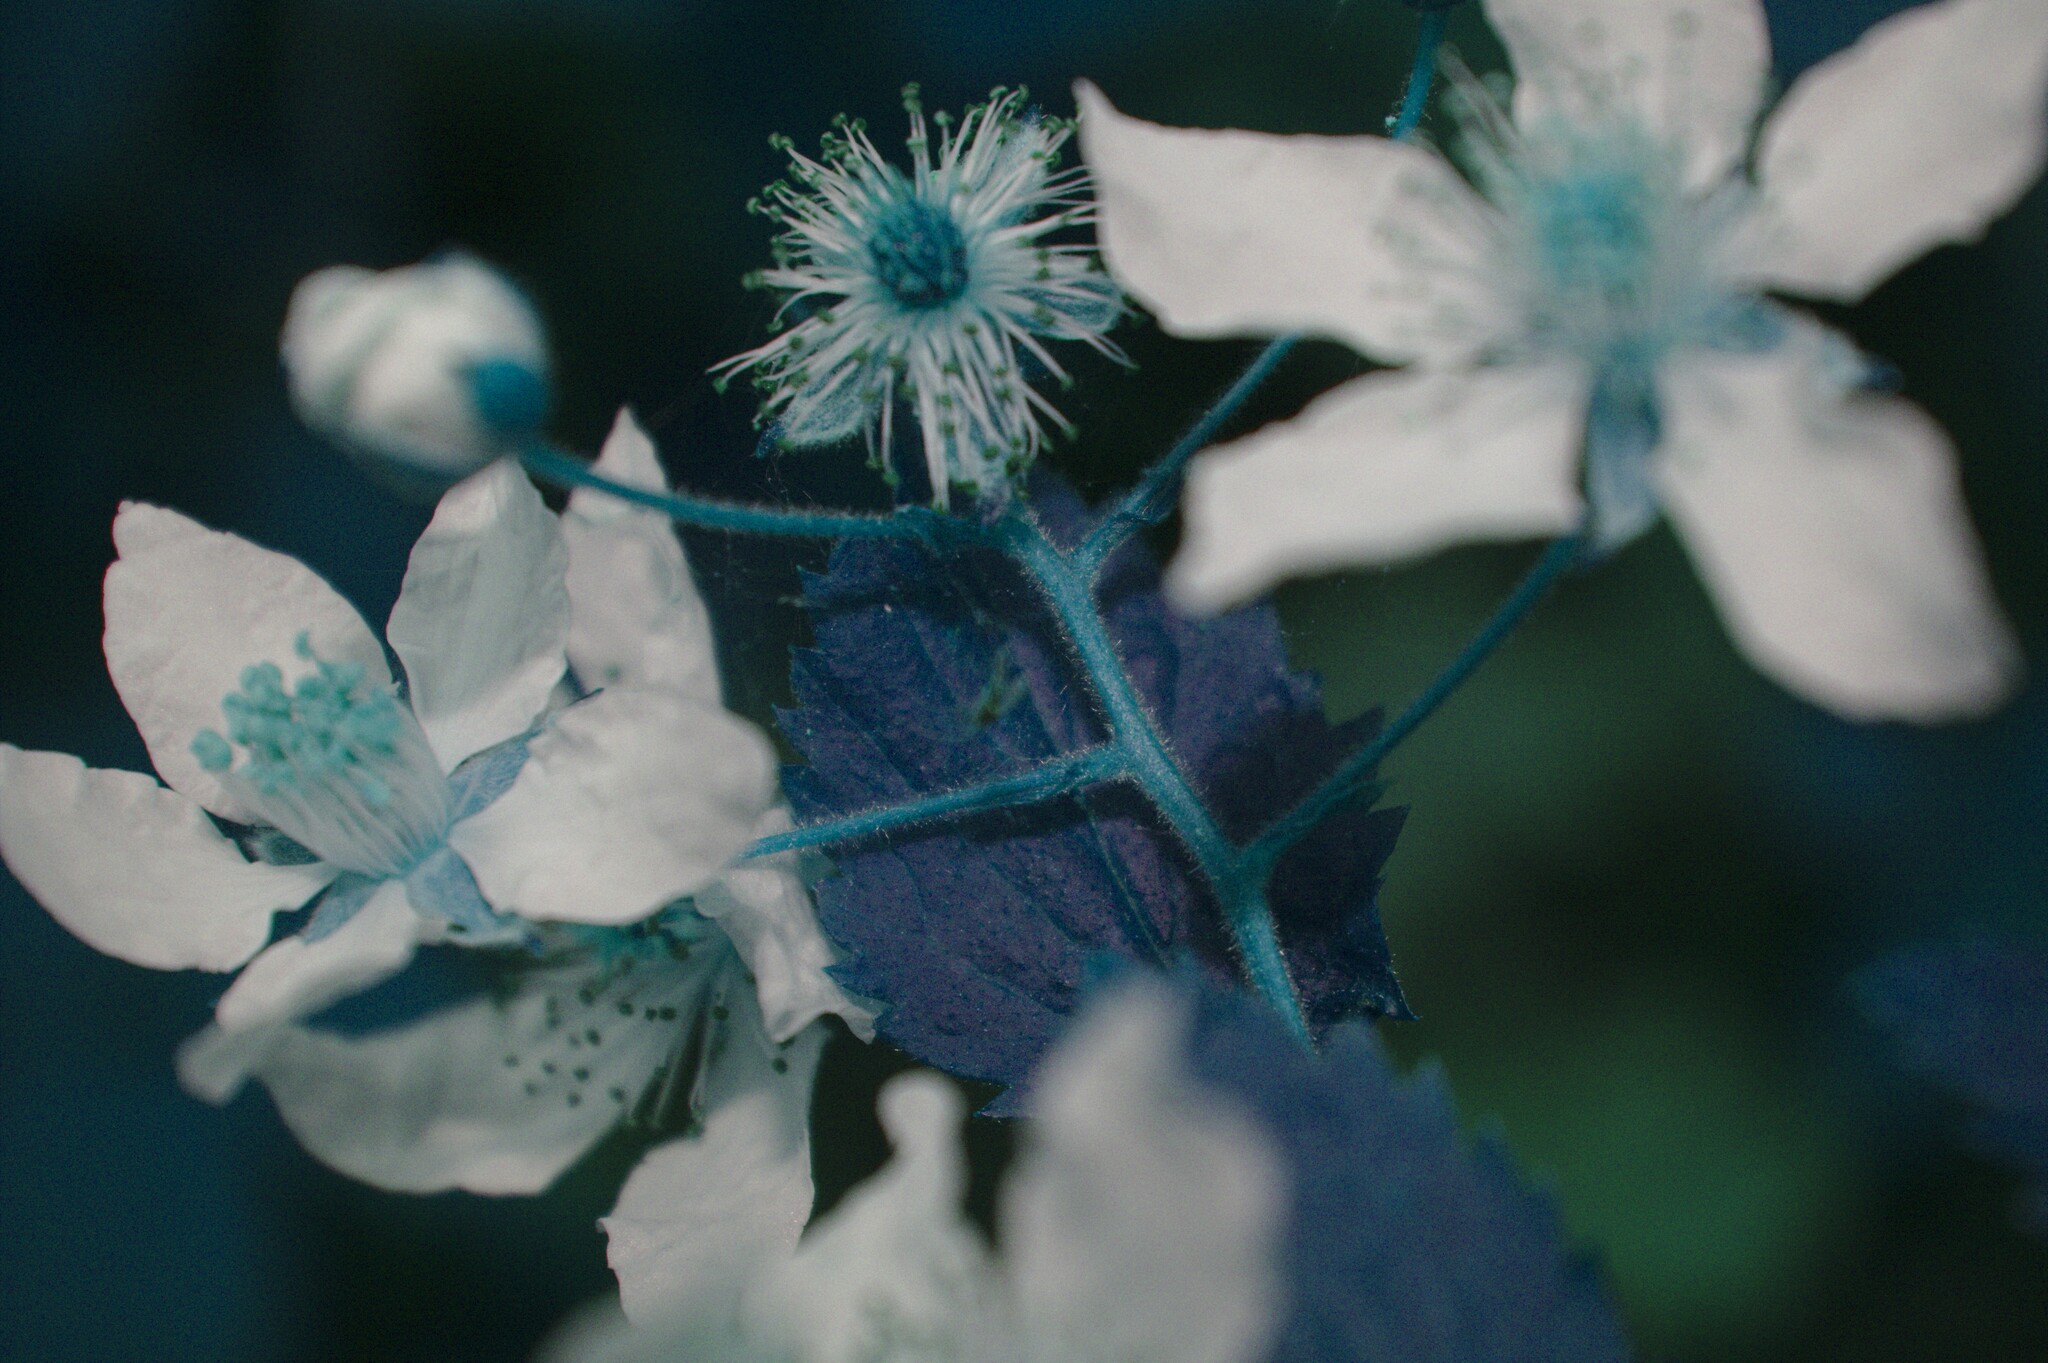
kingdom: Plantae
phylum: Tracheophyta
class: Magnoliopsida
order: Rosales
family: Rosaceae
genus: Rubus
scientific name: Rubus pensilvanicus
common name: Pennsylvania blackberry
